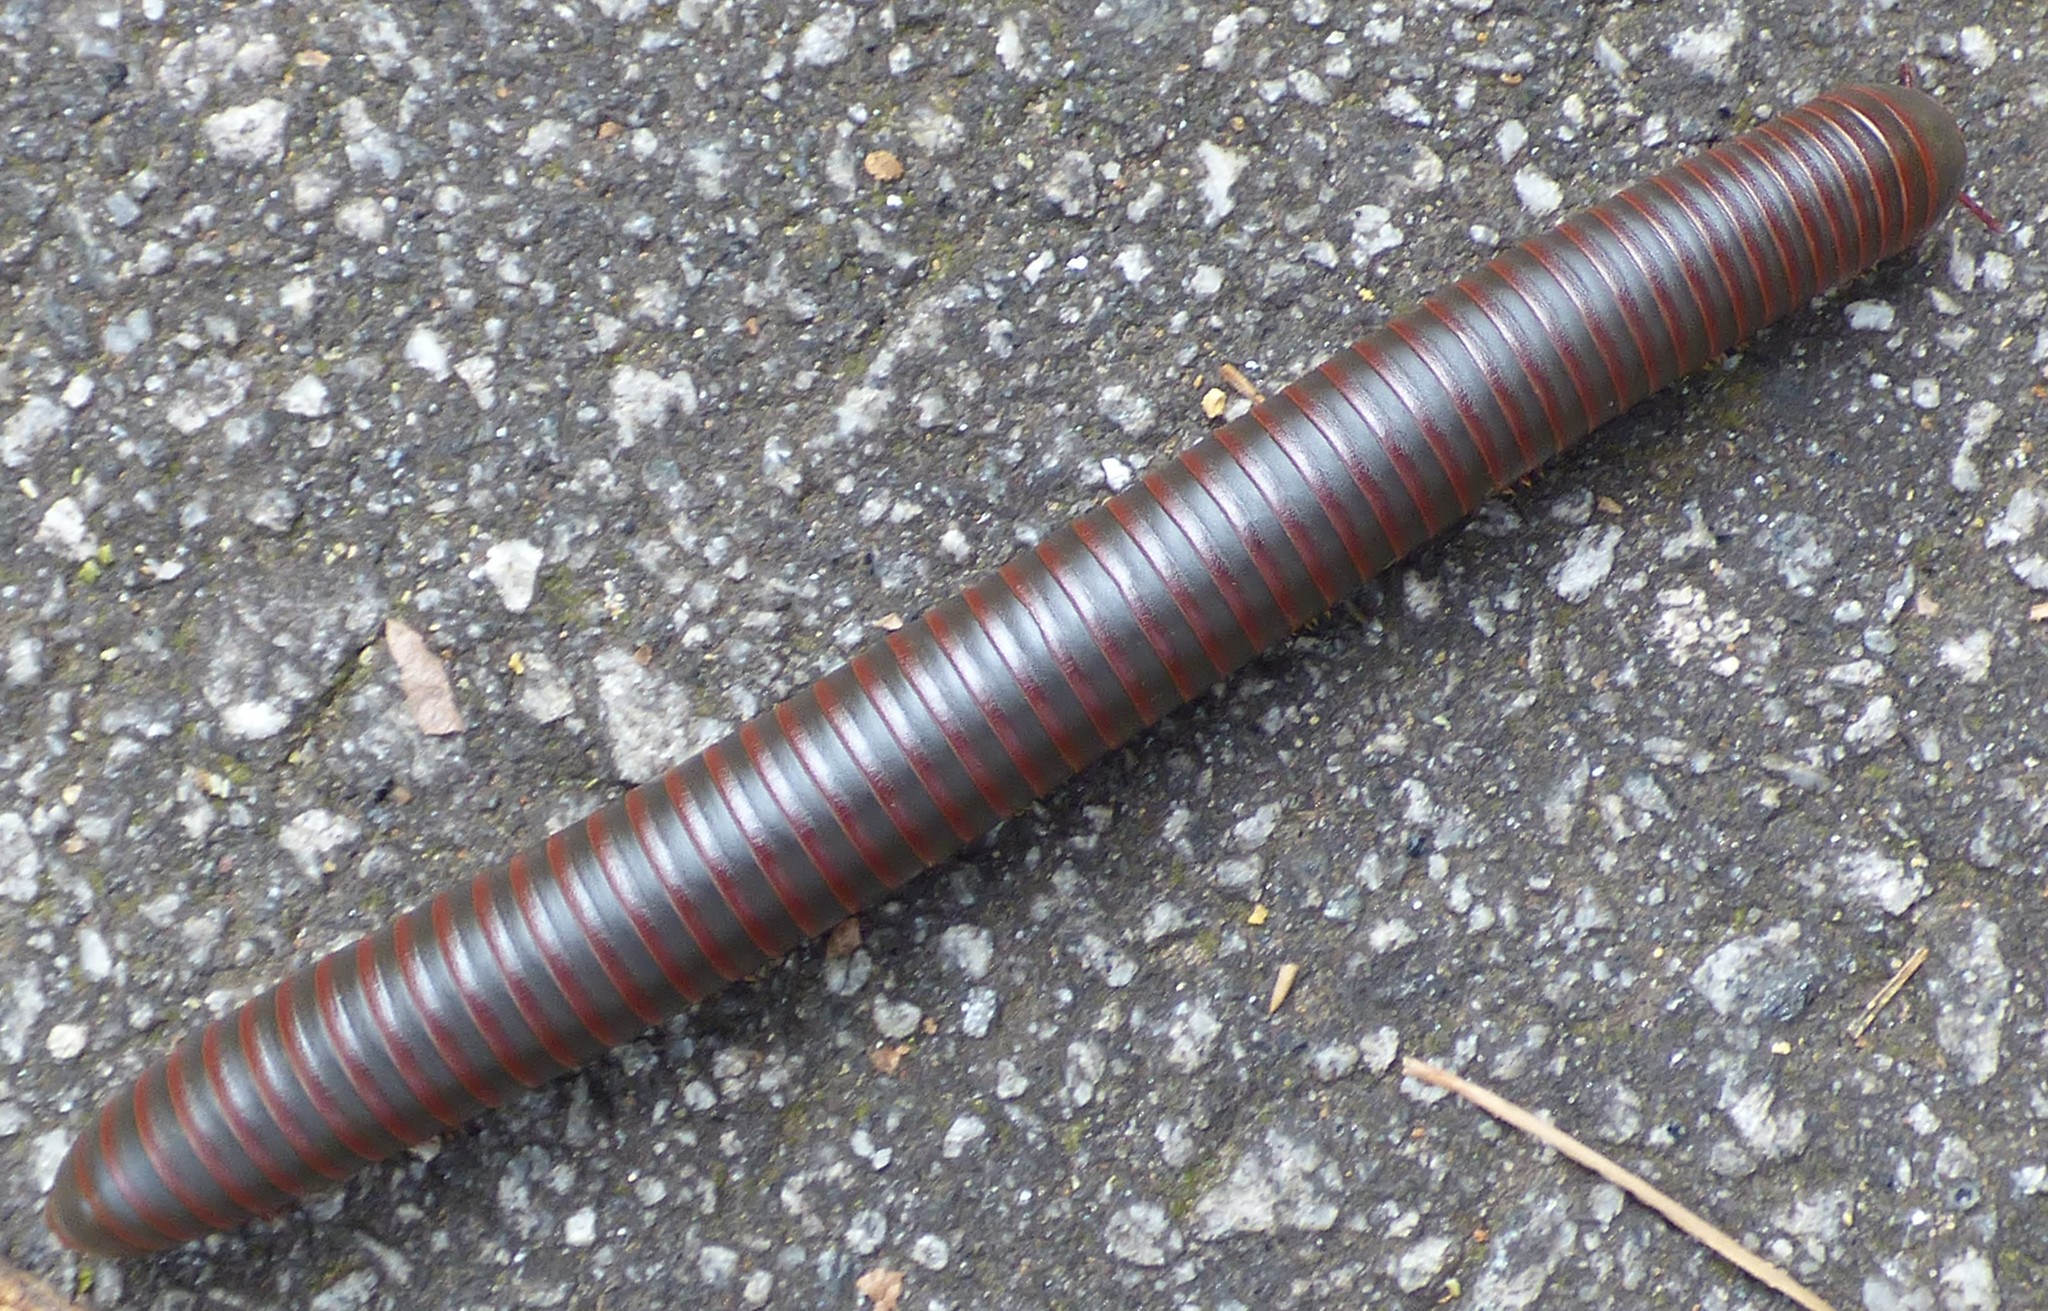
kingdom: Animalia
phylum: Arthropoda
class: Diplopoda
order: Spirobolida
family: Spirobolidae
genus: Narceus
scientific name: Narceus
